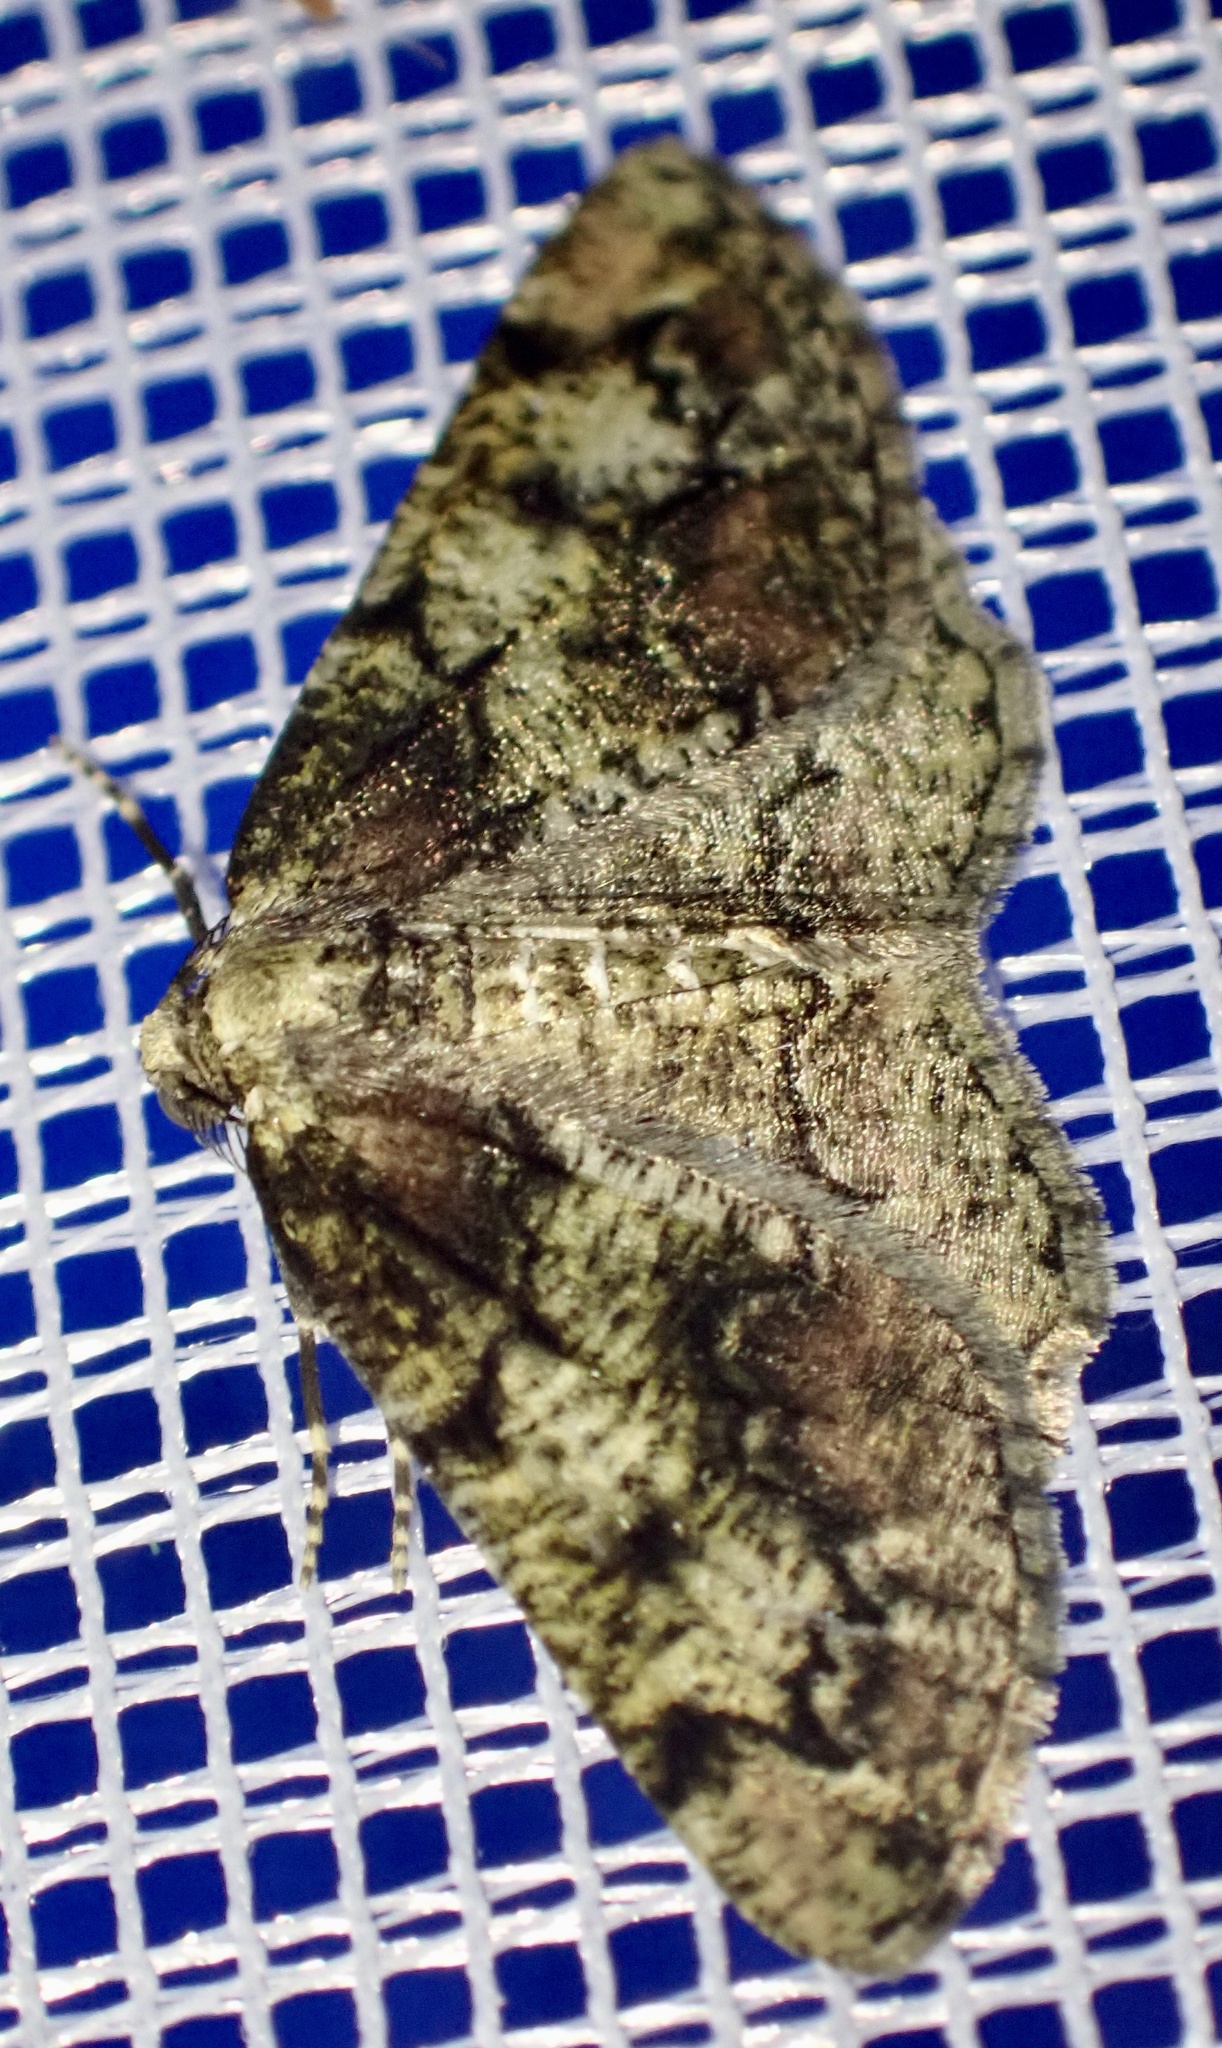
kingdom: Animalia
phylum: Arthropoda
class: Insecta
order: Lepidoptera
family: Geometridae
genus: Cleorodes
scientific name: Cleorodes lichenaria
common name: Brussels lace
